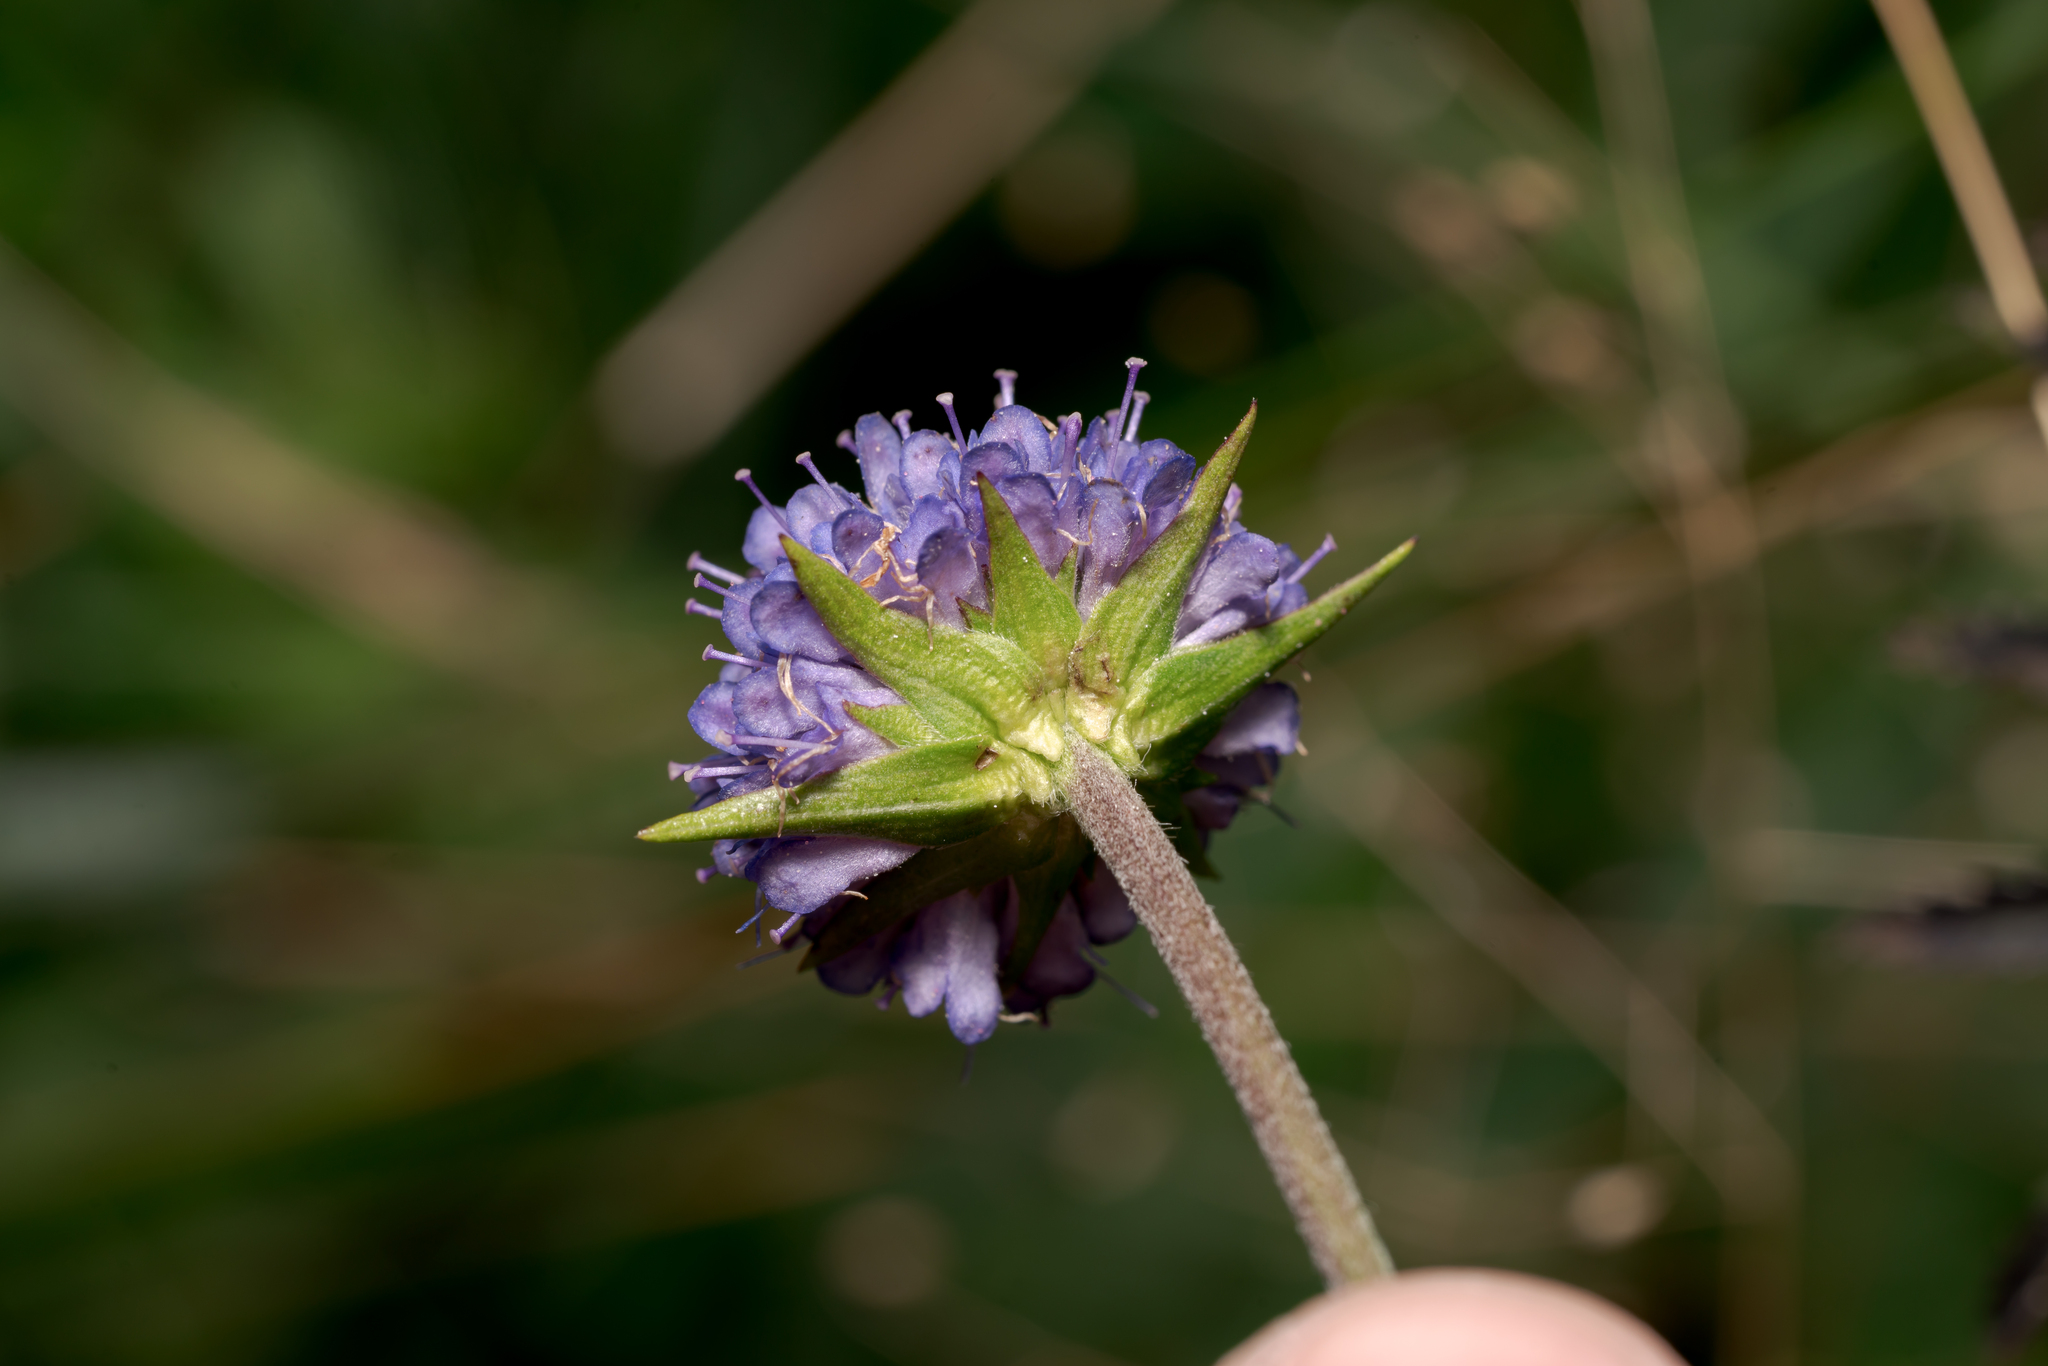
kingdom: Plantae
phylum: Tracheophyta
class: Magnoliopsida
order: Dipsacales
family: Caprifoliaceae
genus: Succisa
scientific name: Succisa pratensis
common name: Devil's-bit
